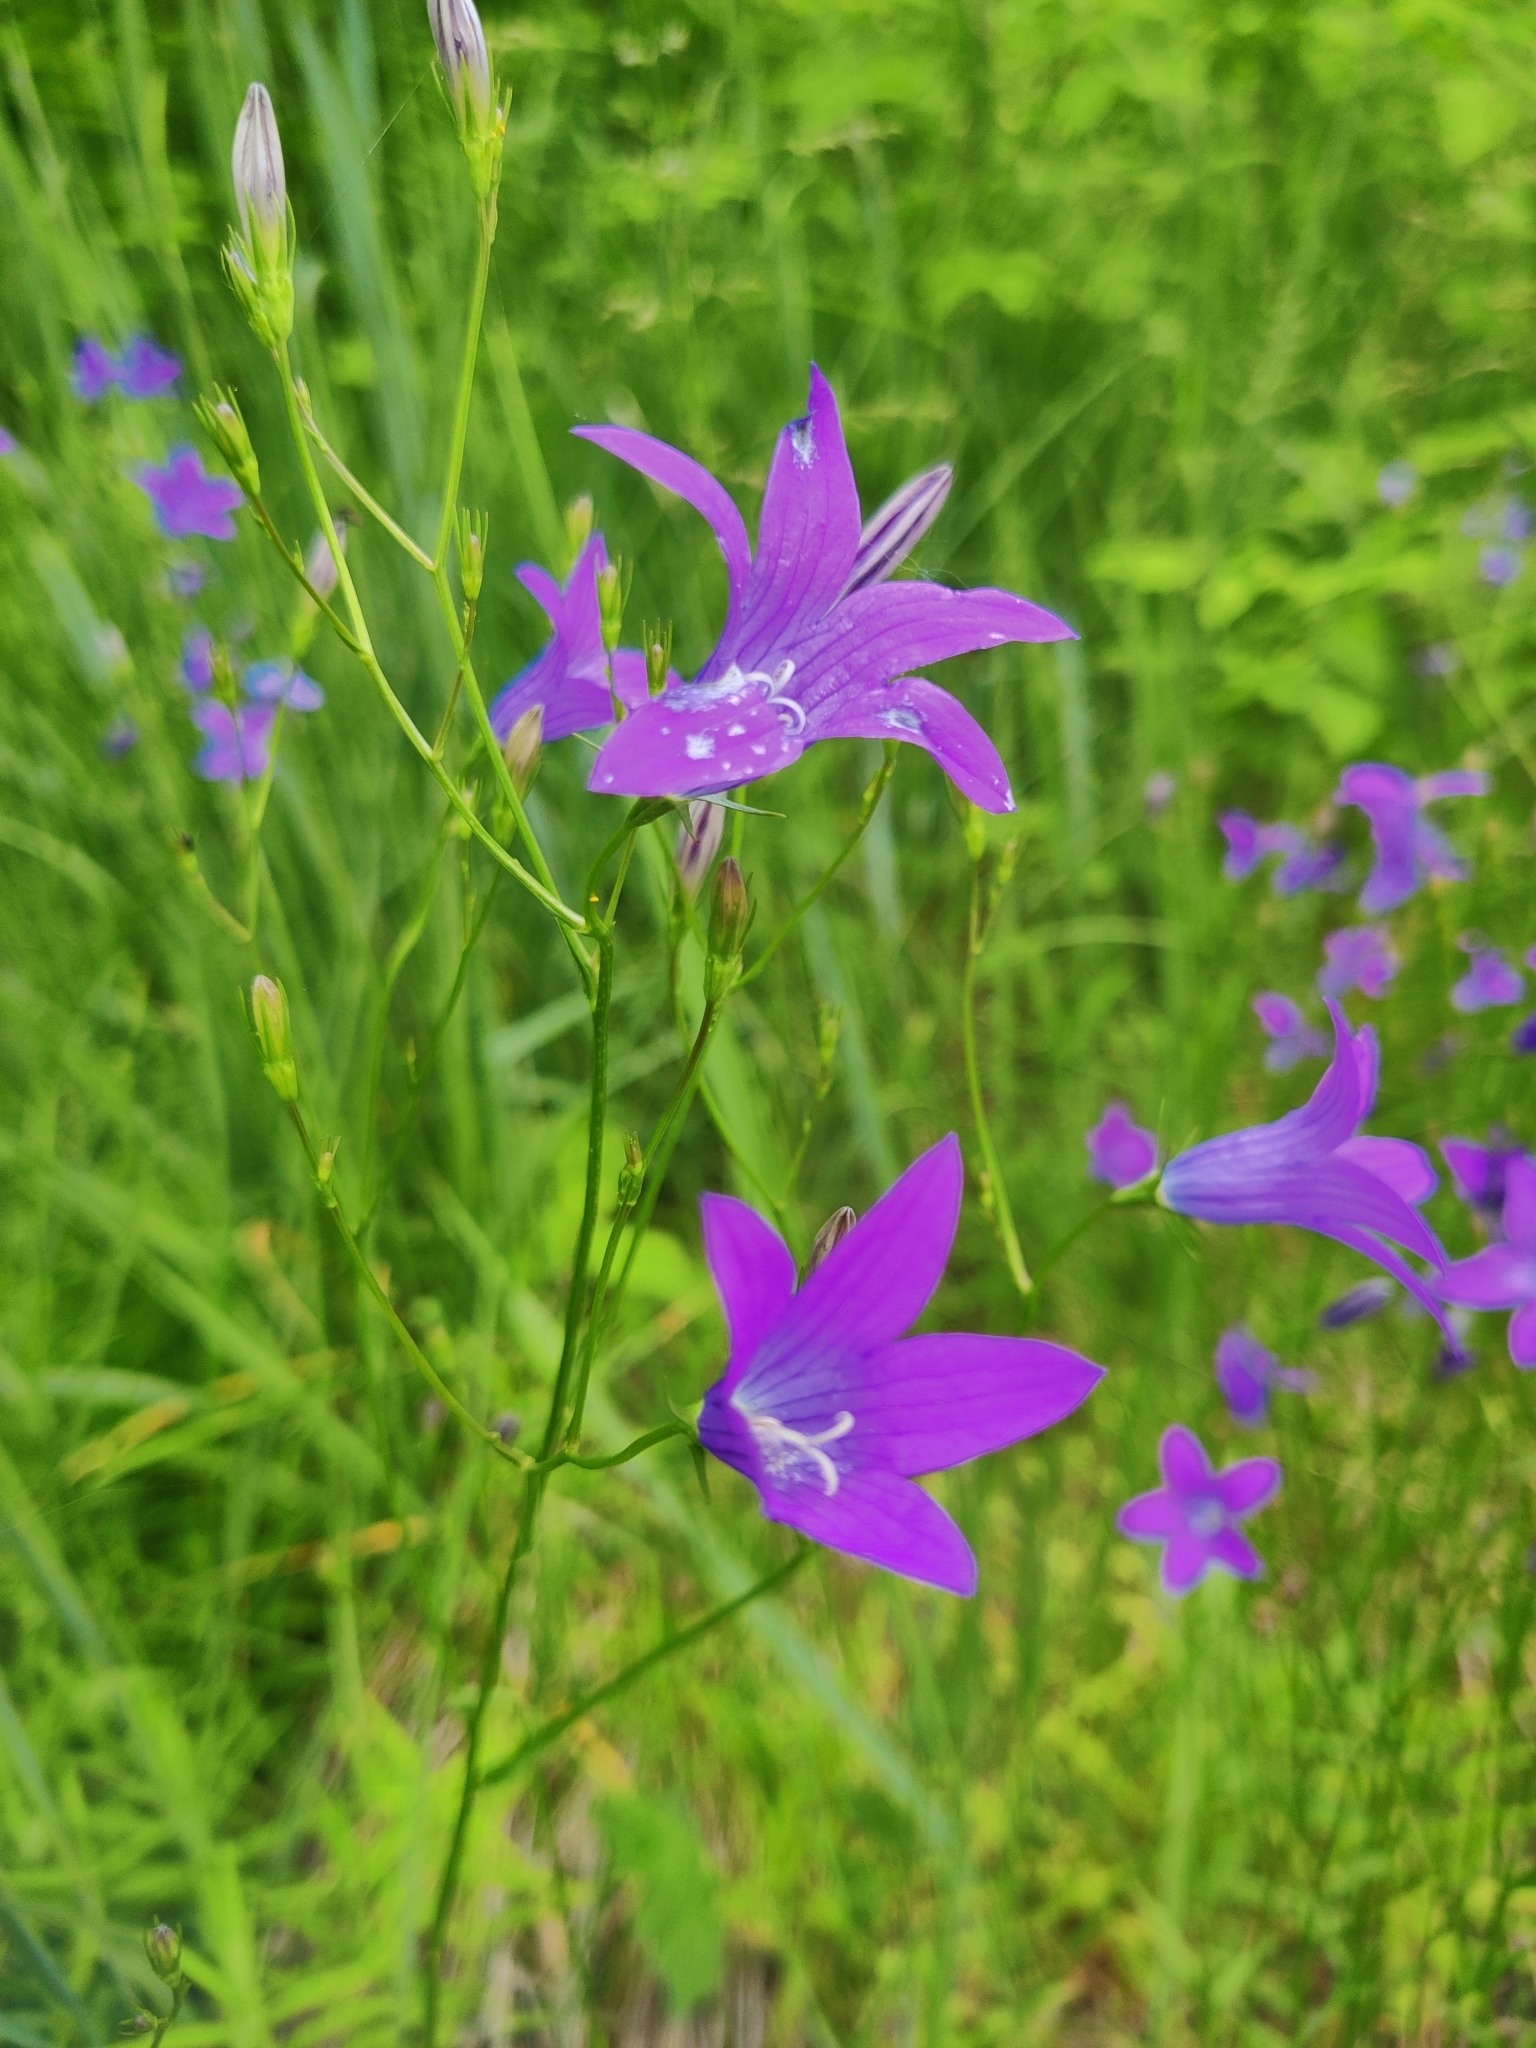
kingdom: Plantae
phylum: Tracheophyta
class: Magnoliopsida
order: Asterales
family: Campanulaceae
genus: Campanula
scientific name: Campanula patula
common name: Spreading bellflower
